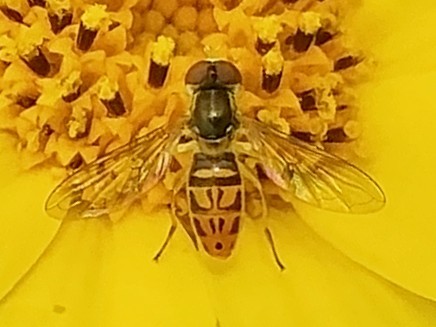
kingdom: Animalia
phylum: Arthropoda
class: Insecta
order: Diptera
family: Syrphidae
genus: Toxomerus
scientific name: Toxomerus marginatus
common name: Syrphid fly
